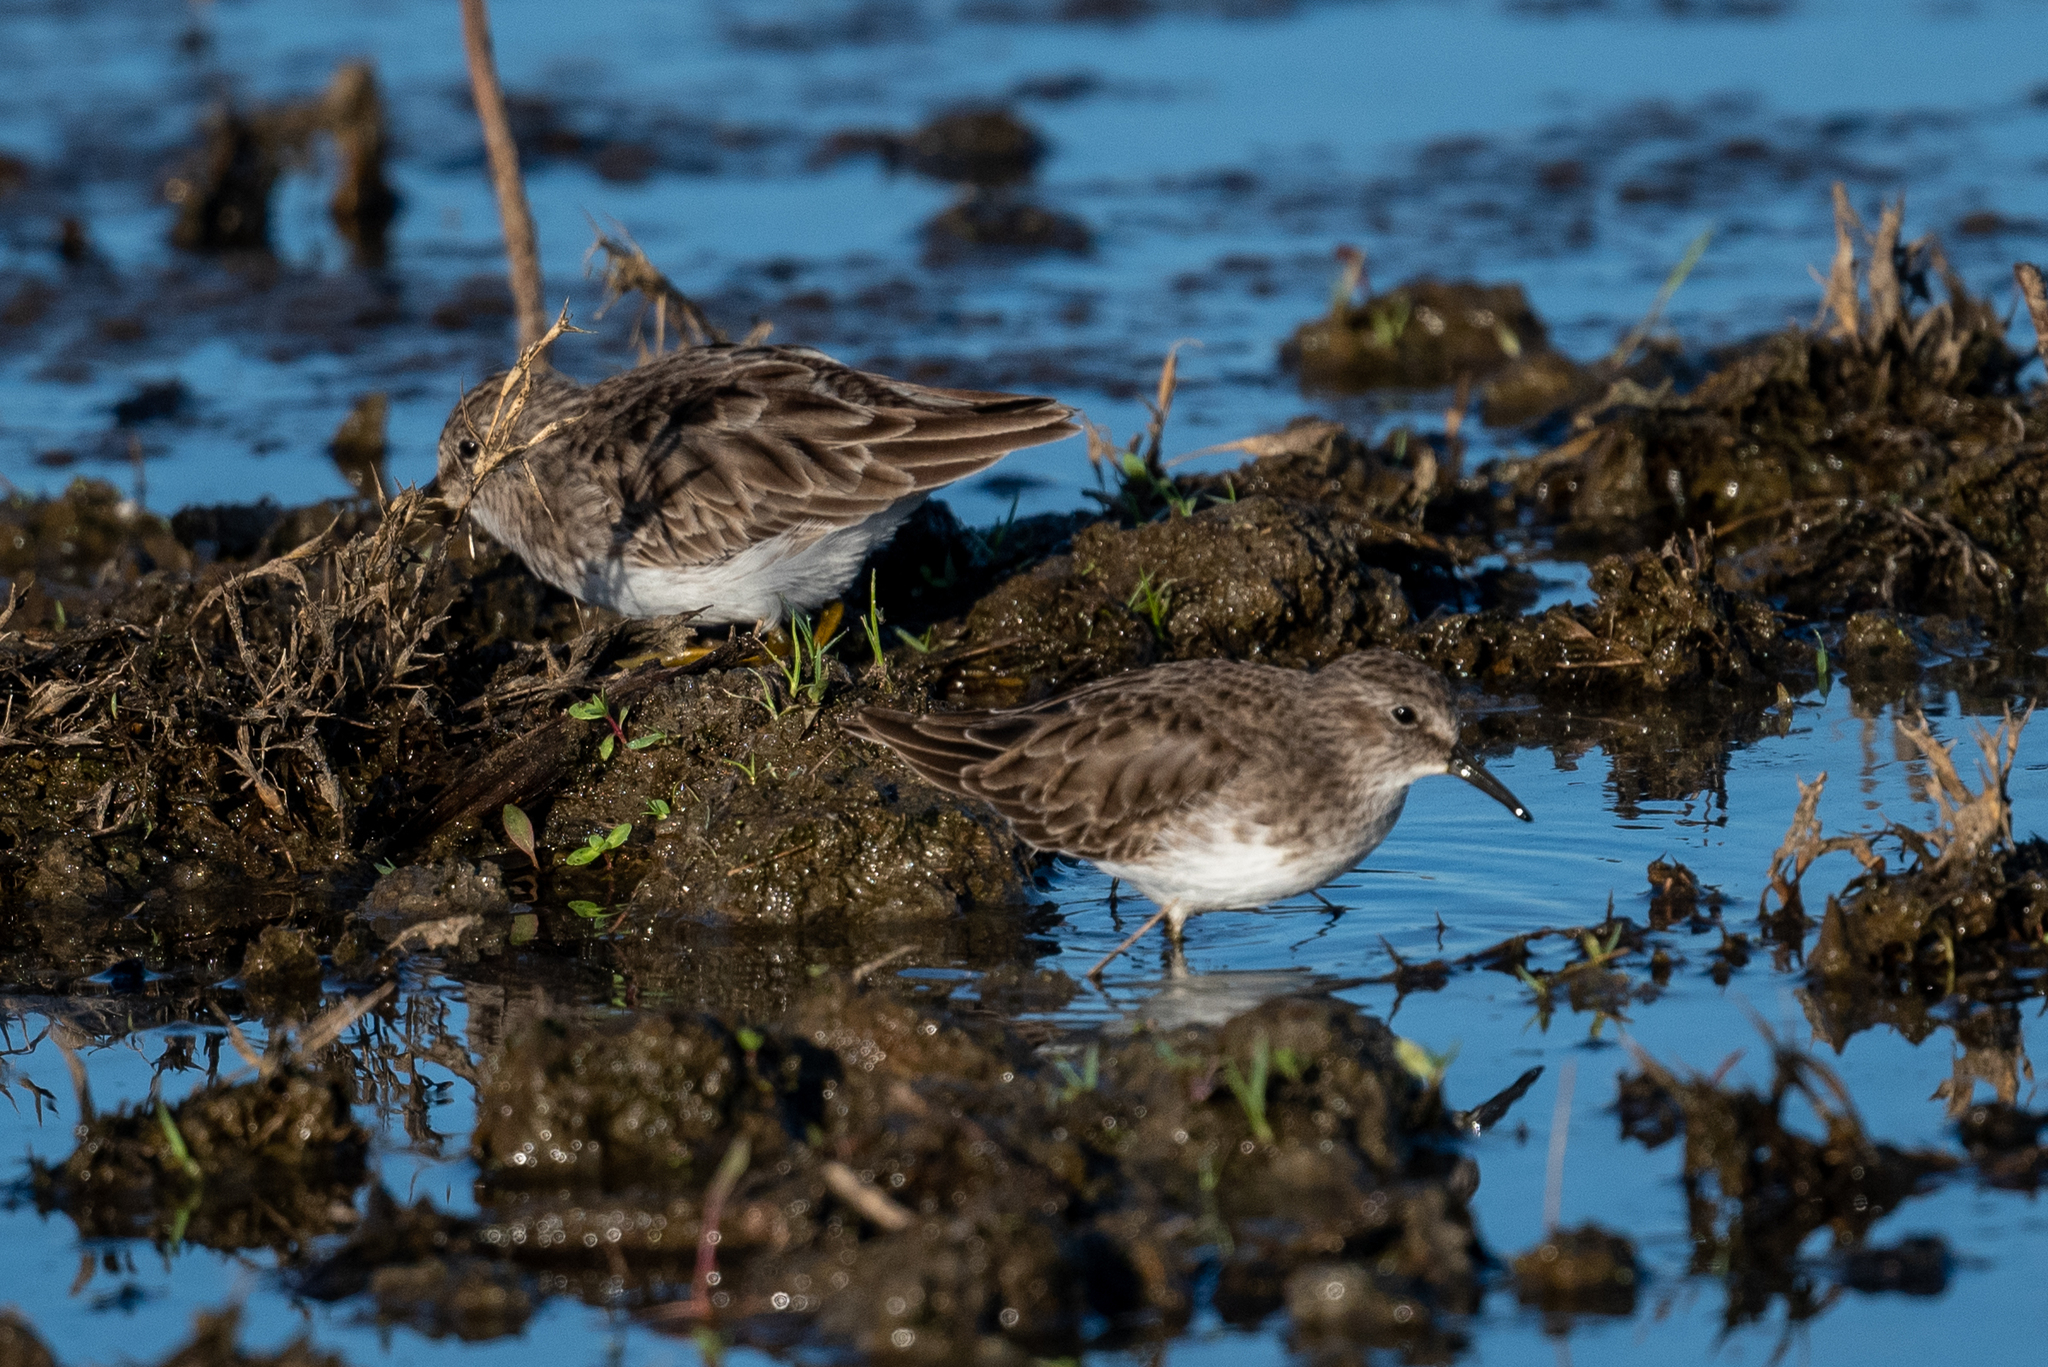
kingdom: Animalia
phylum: Chordata
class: Aves
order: Charadriiformes
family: Scolopacidae
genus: Calidris
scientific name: Calidris minutilla
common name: Least sandpiper
